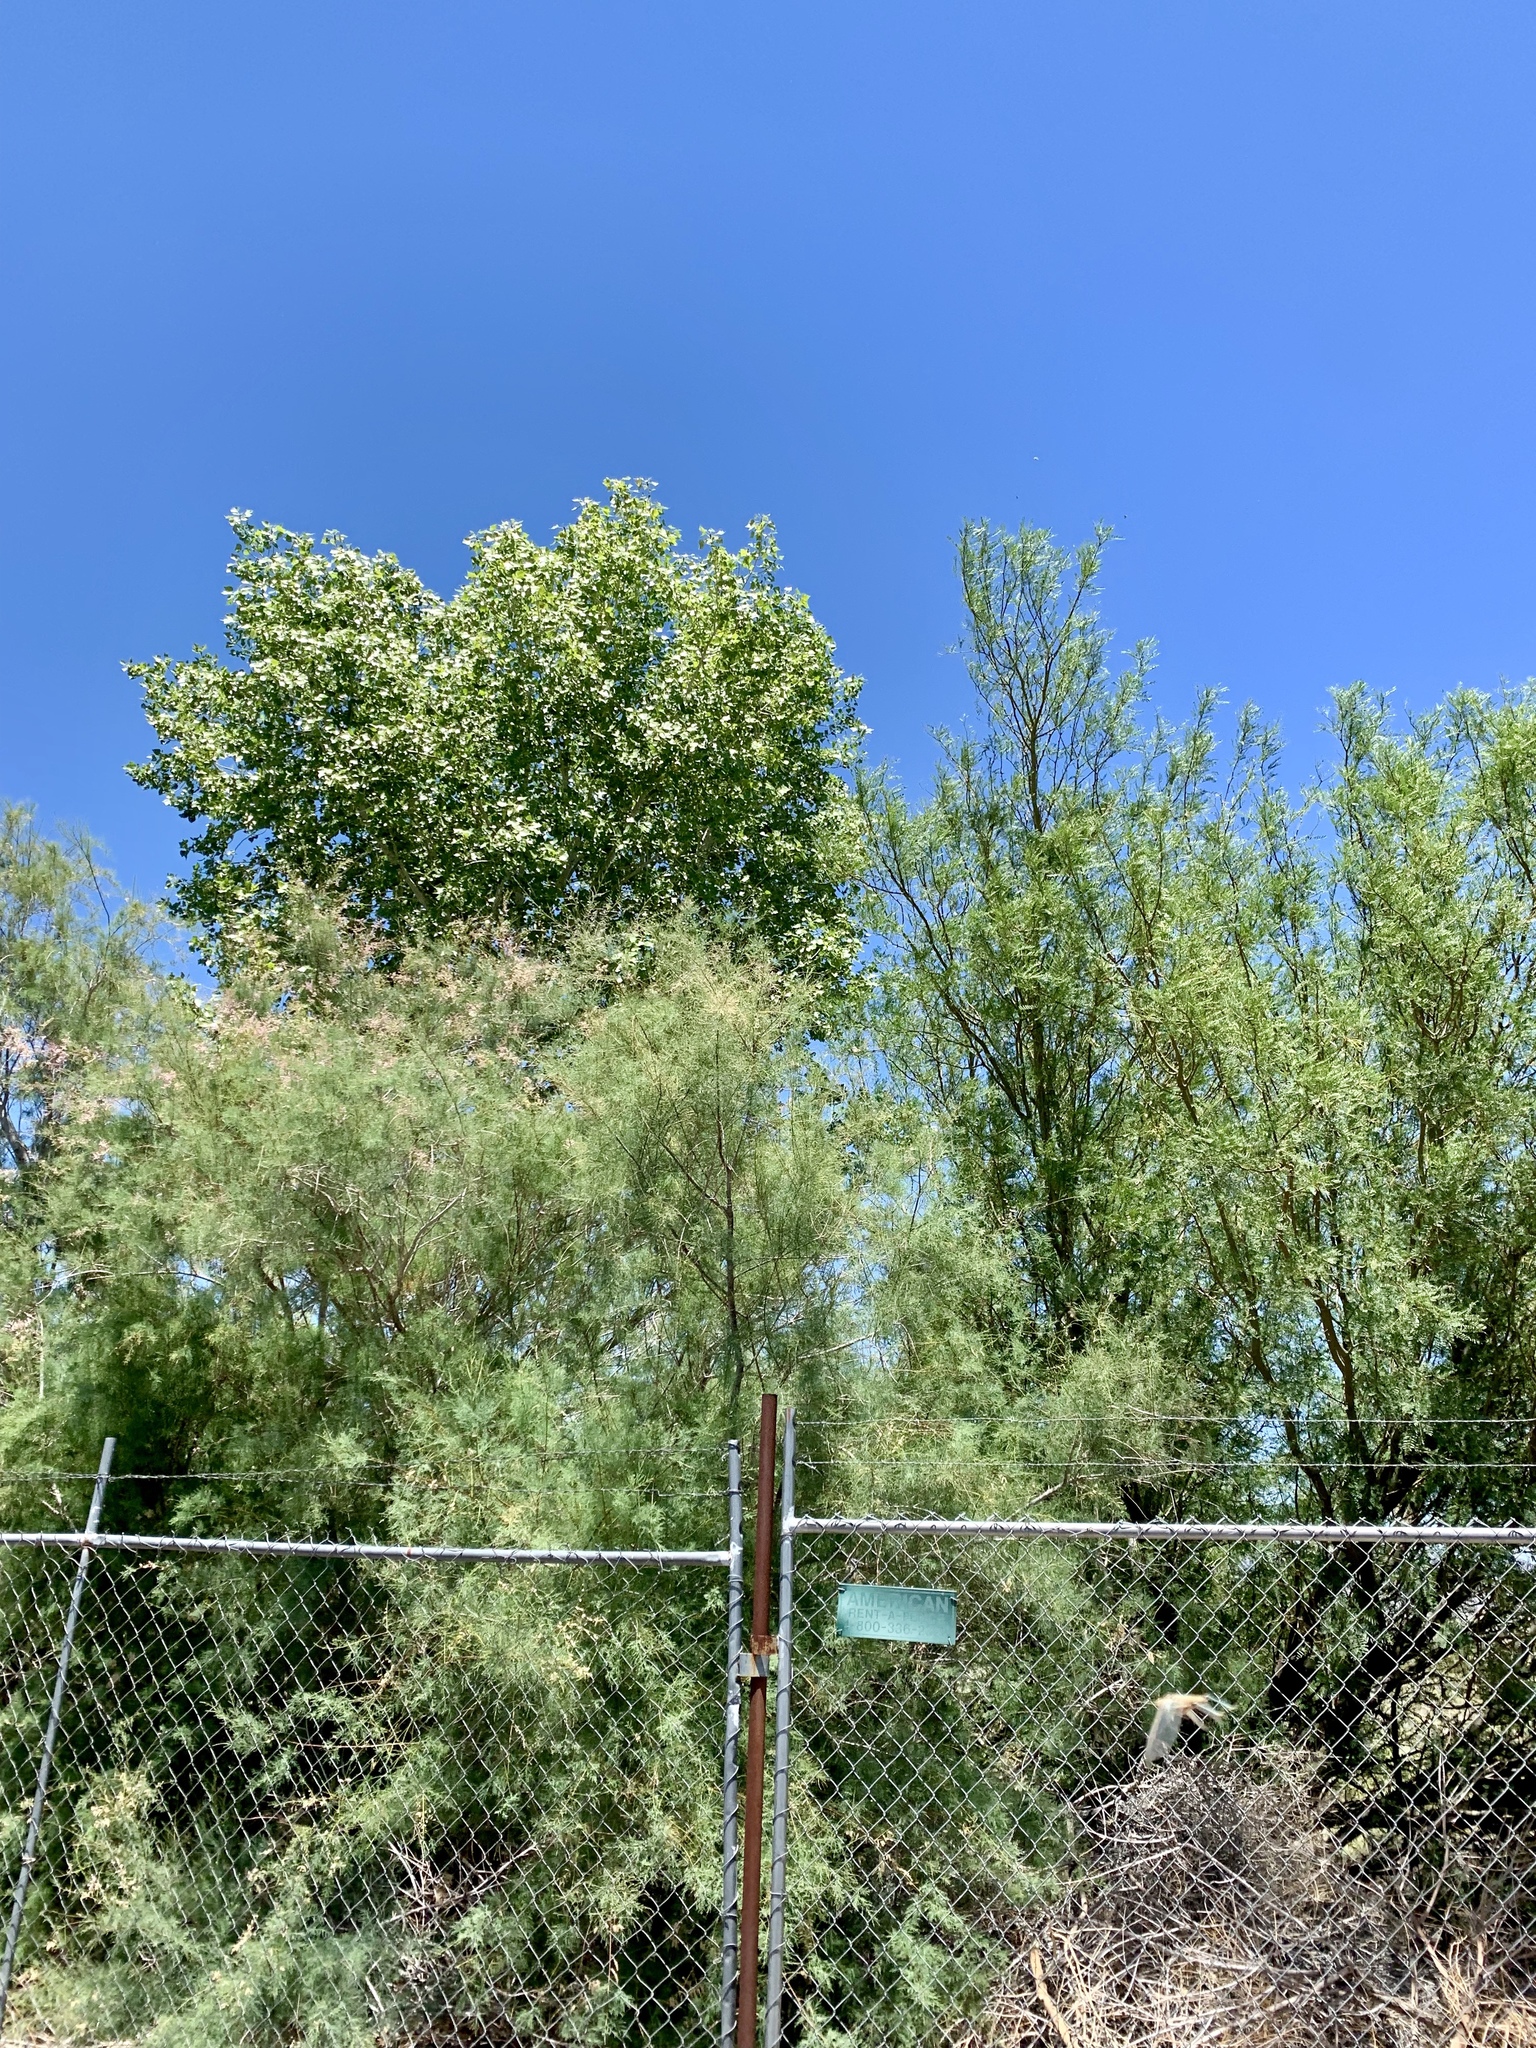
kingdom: Plantae
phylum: Tracheophyta
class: Magnoliopsida
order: Caryophyllales
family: Tamaricaceae
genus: Tamarix
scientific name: Tamarix
